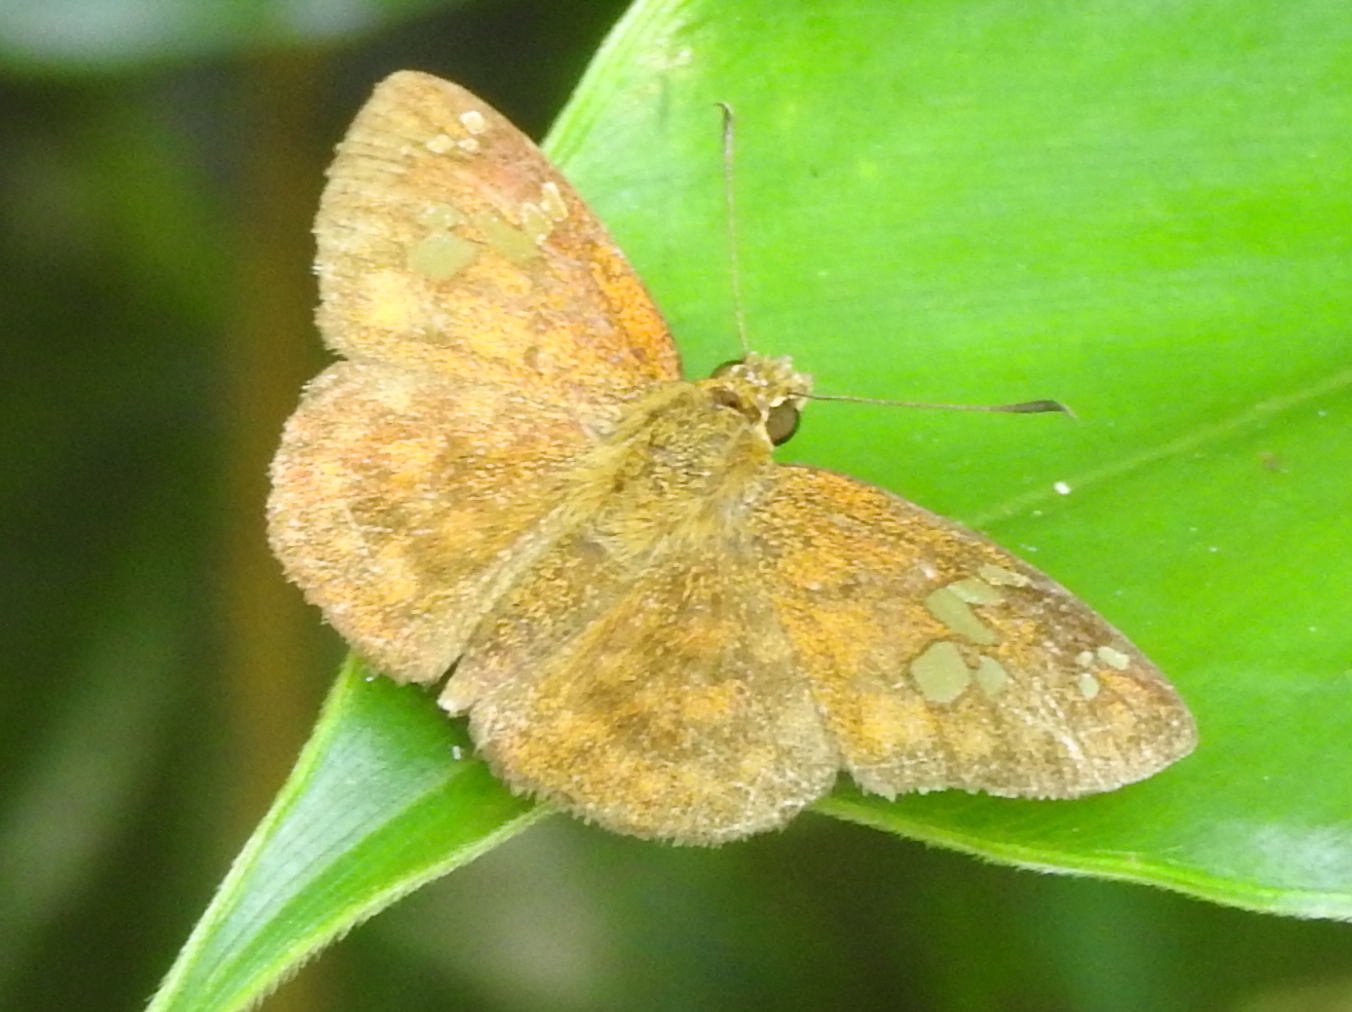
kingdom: Animalia
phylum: Arthropoda
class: Insecta
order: Lepidoptera
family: Hesperiidae
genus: Pseudocoladenia
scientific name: Pseudocoladenia dan
